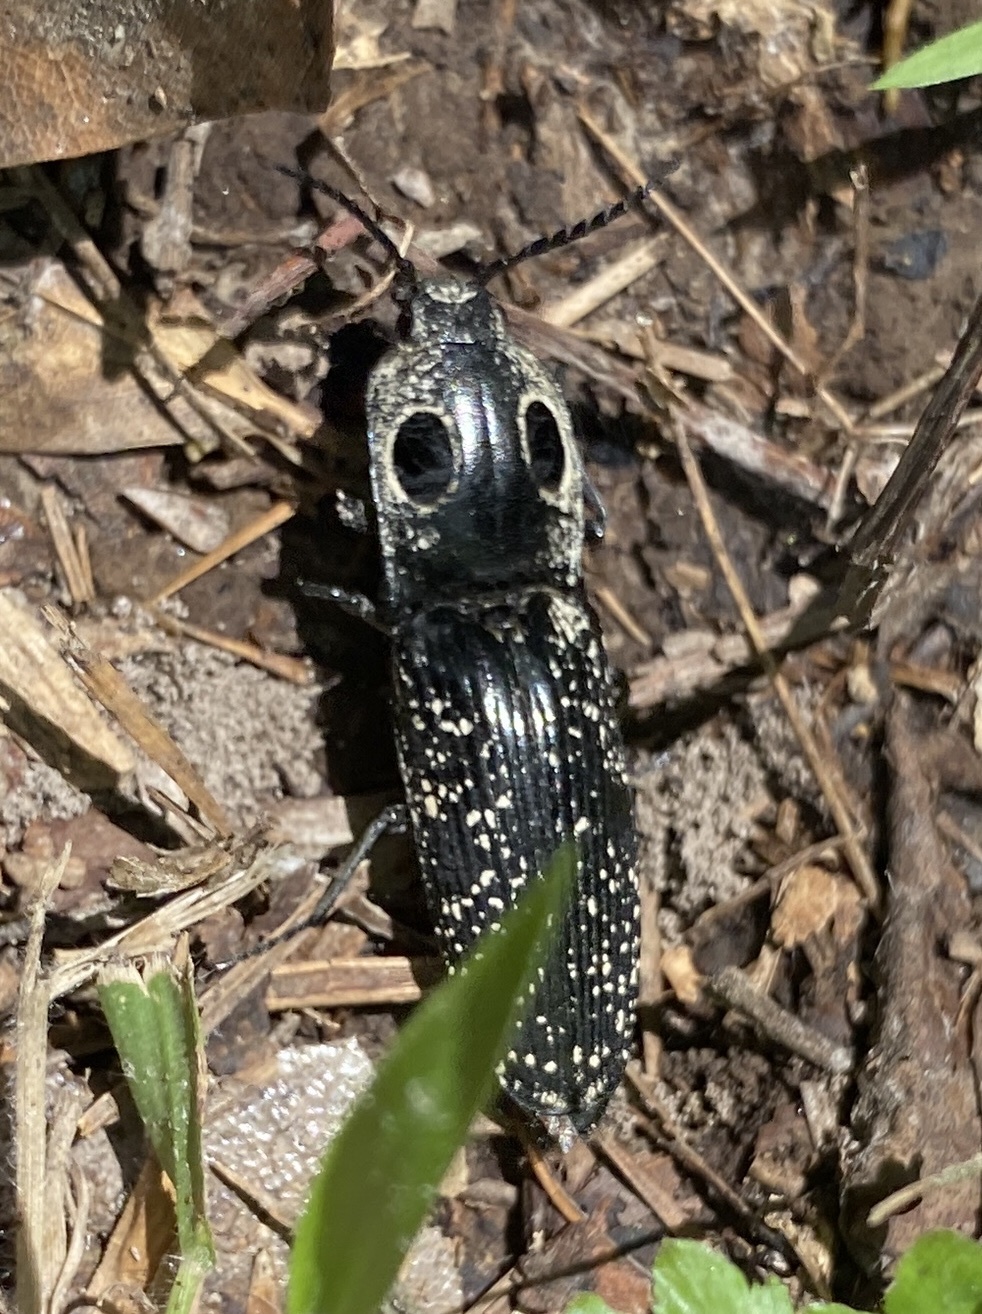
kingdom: Animalia
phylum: Arthropoda
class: Insecta
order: Coleoptera
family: Elateridae
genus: Alaus
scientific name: Alaus oculatus
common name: Eastern eyed click beetle
